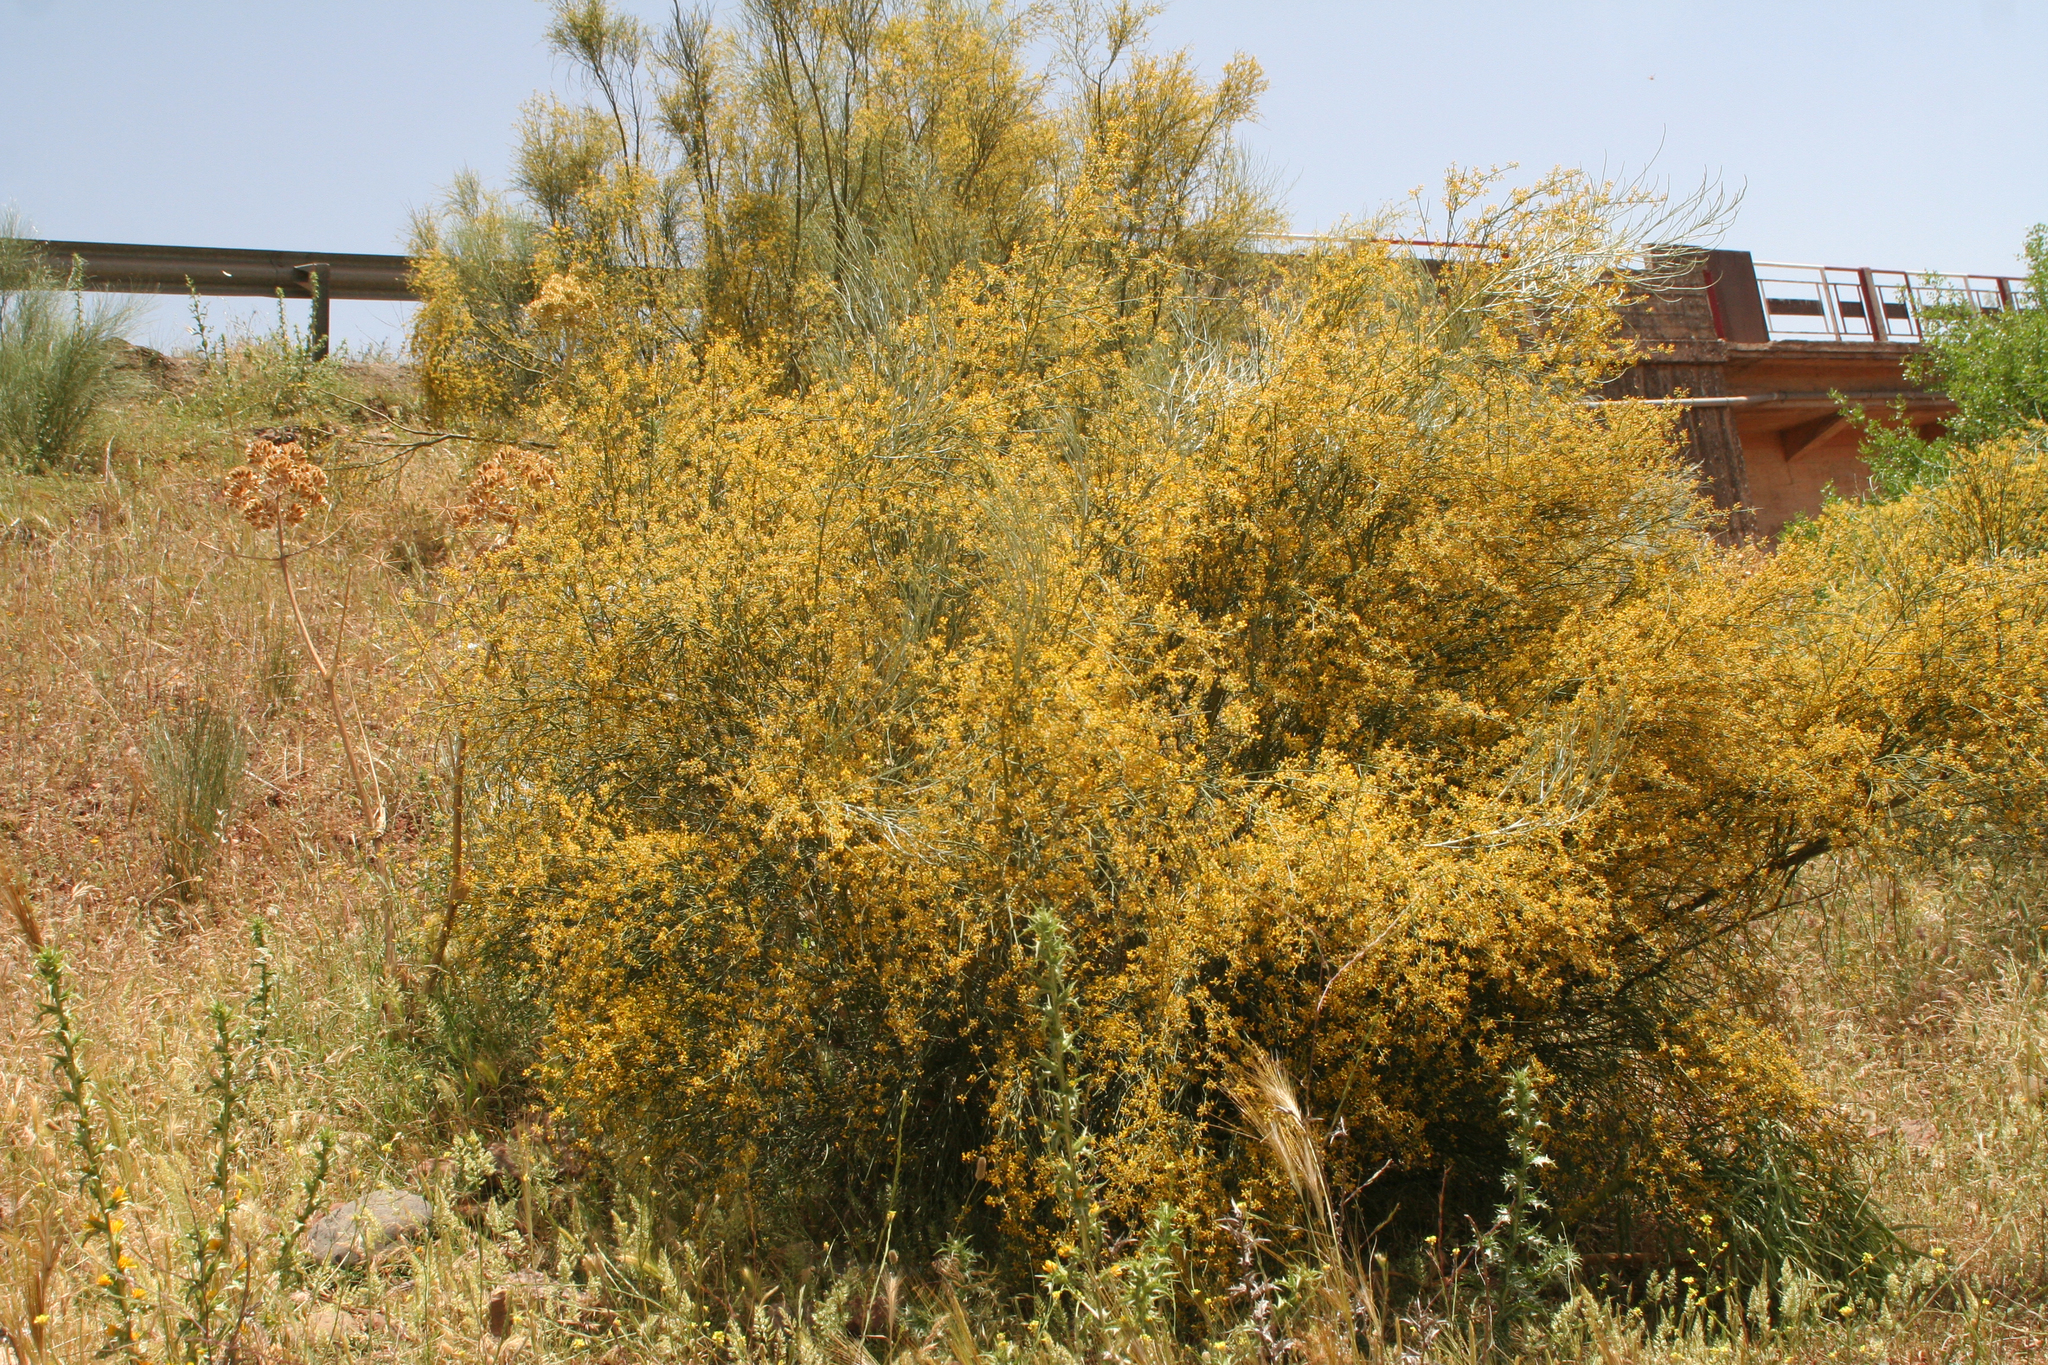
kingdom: Plantae
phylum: Tracheophyta
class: Magnoliopsida
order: Fabales
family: Fabaceae
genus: Retama
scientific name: Retama sphaerocarpa
